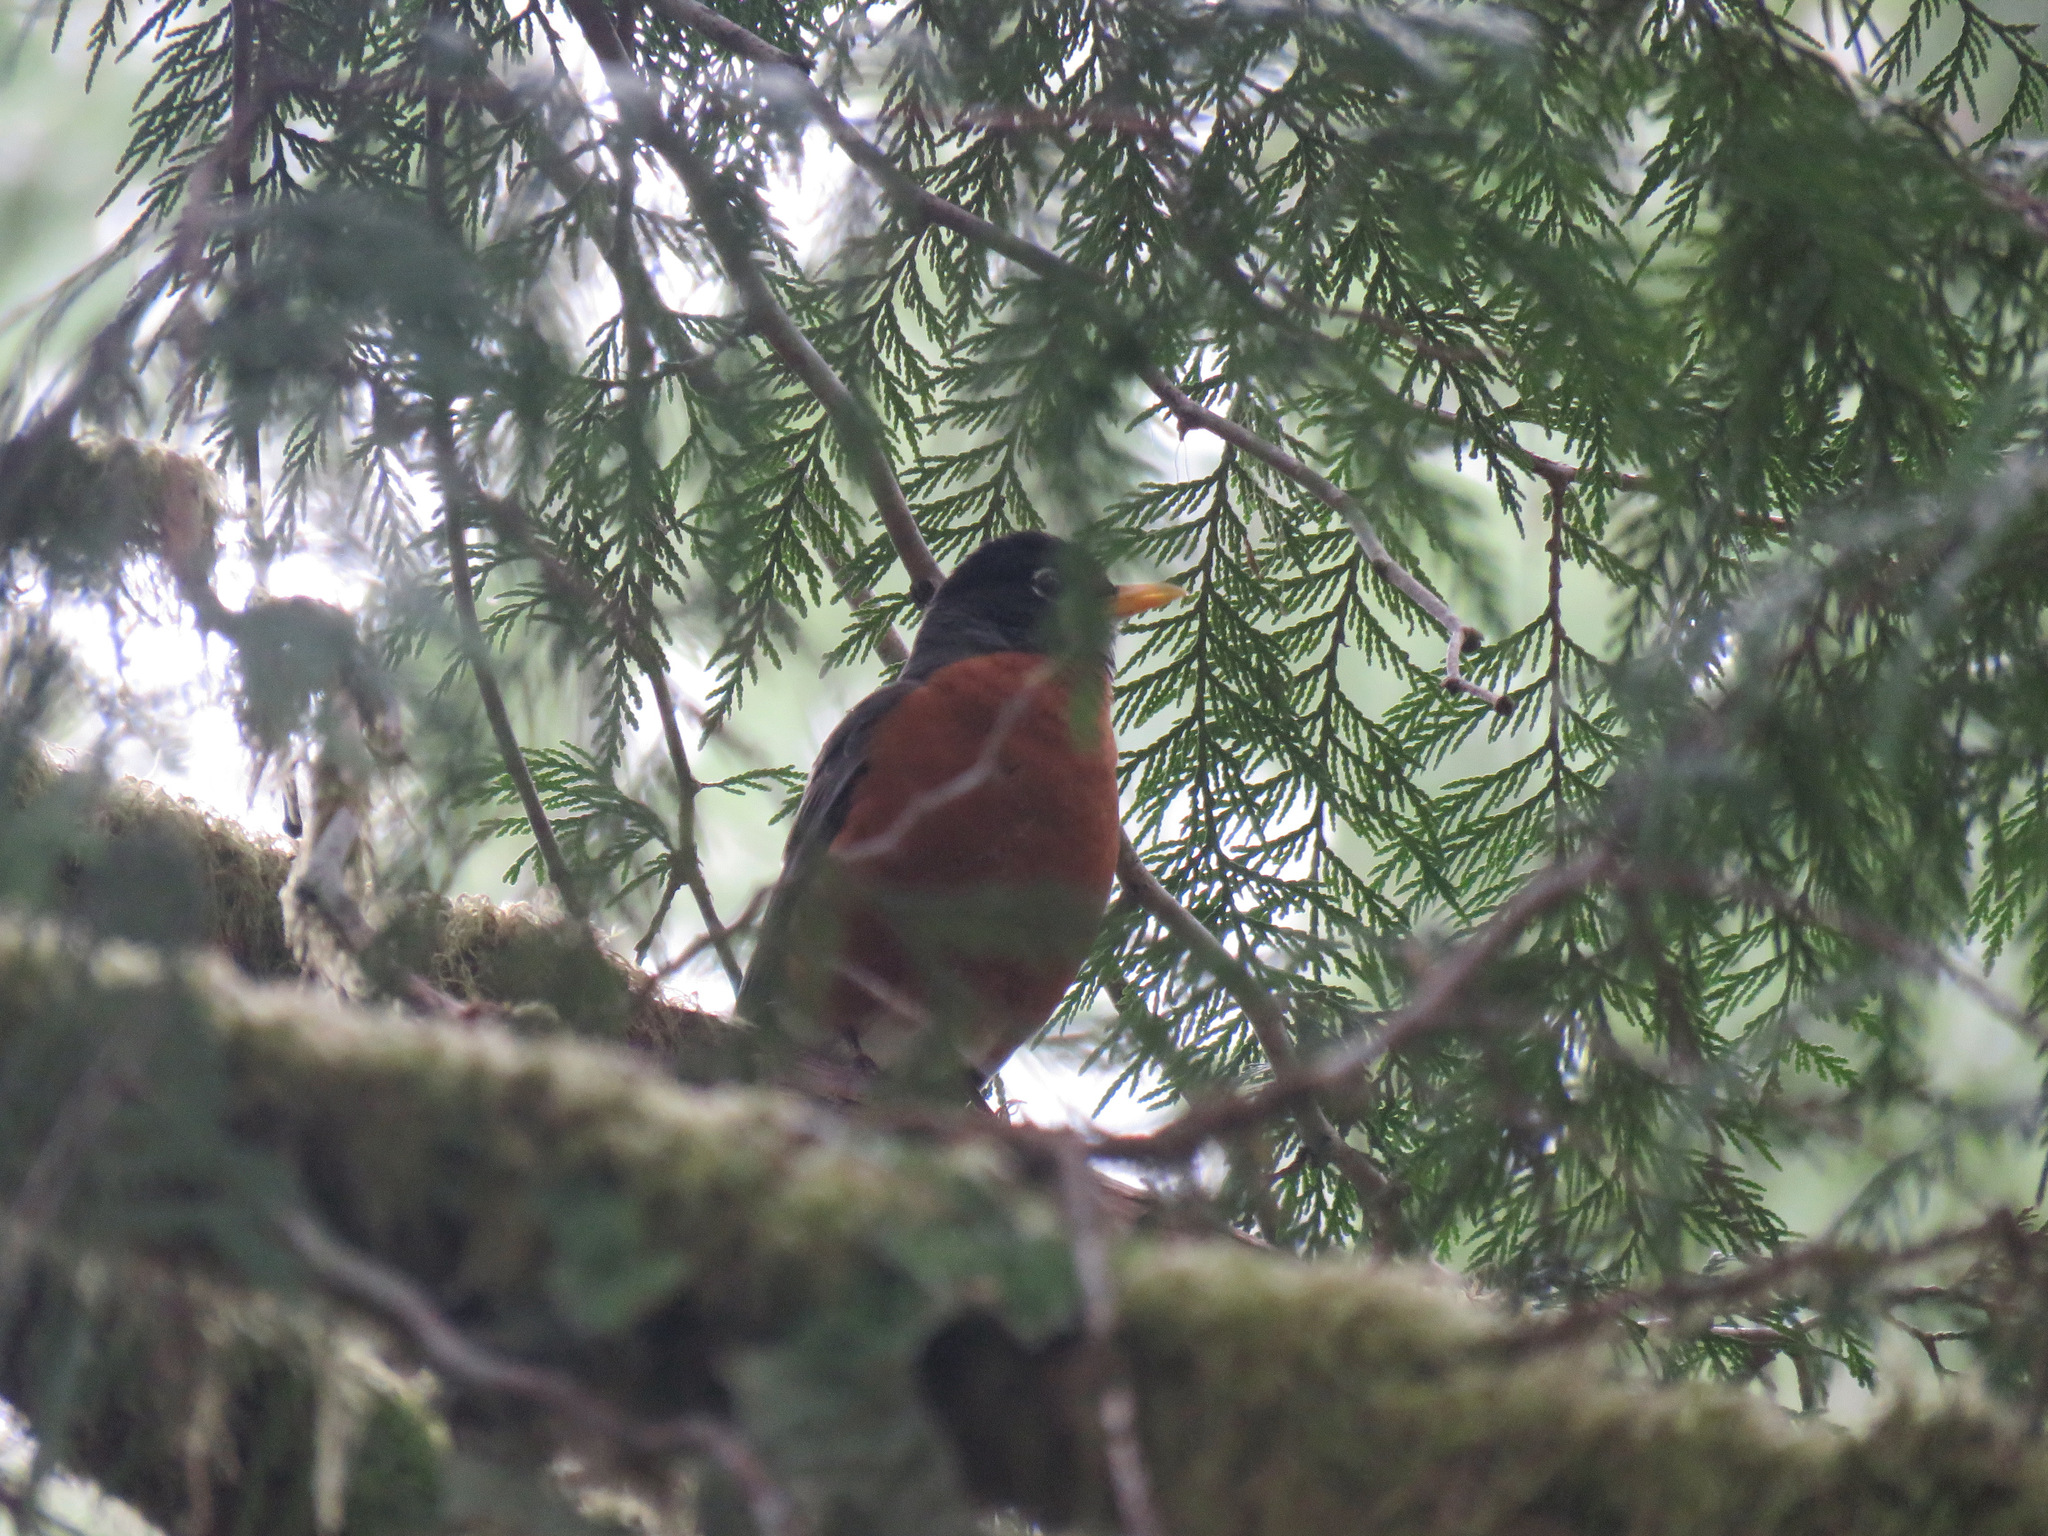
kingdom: Animalia
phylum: Chordata
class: Aves
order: Passeriformes
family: Turdidae
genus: Turdus
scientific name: Turdus migratorius
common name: American robin
